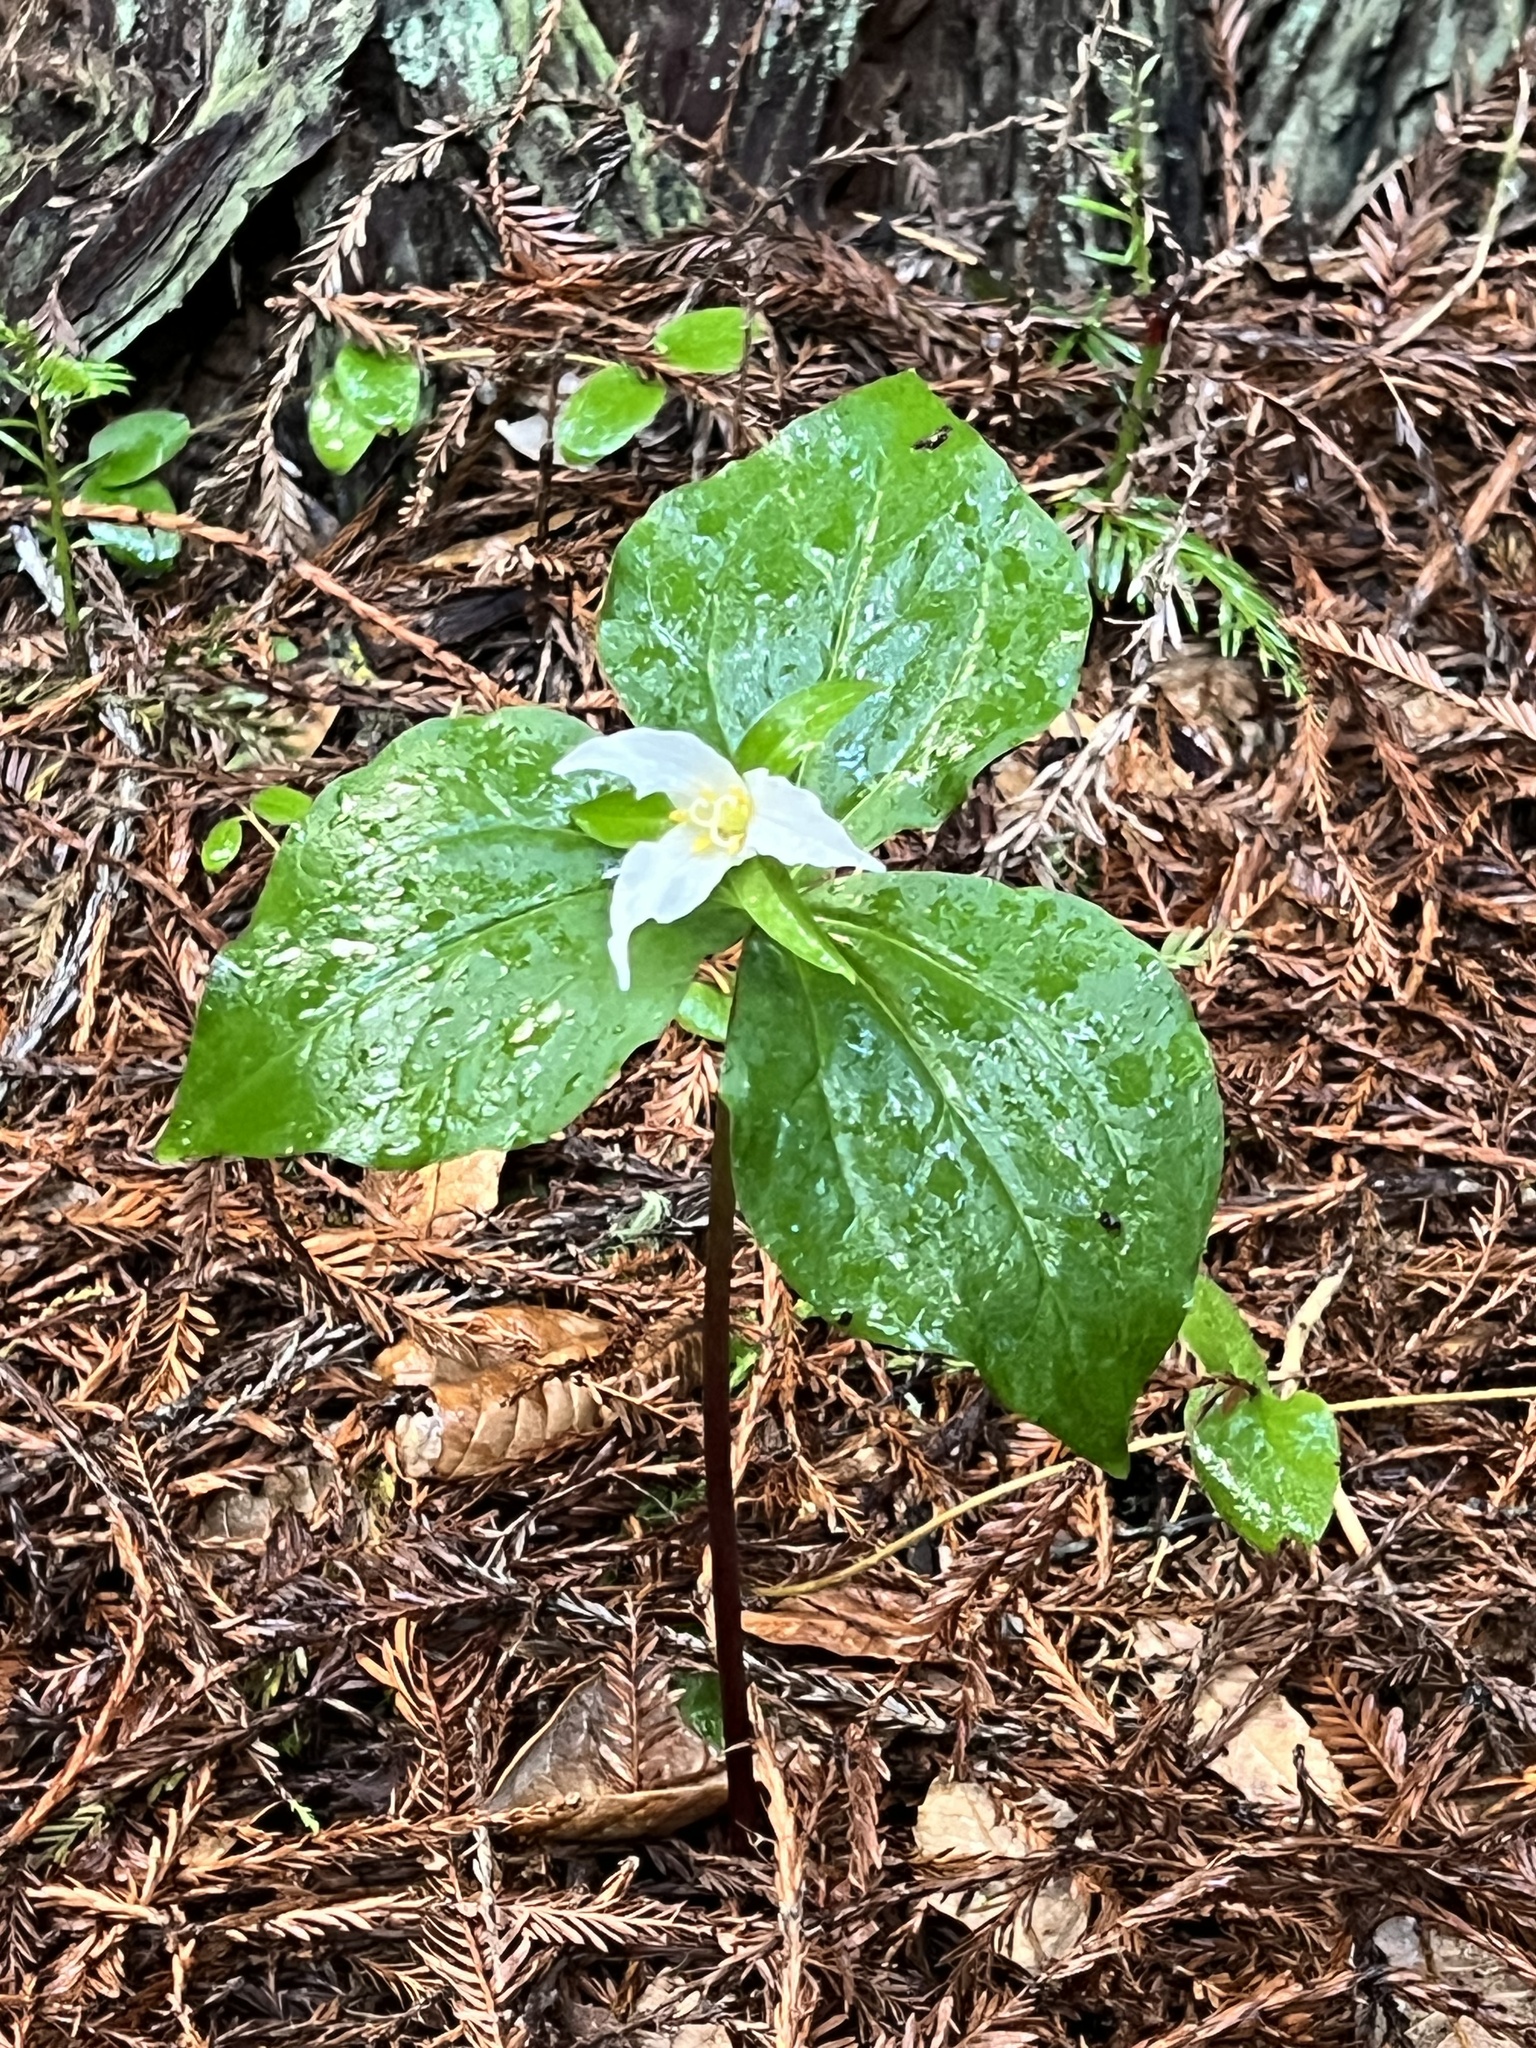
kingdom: Plantae
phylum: Tracheophyta
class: Liliopsida
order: Liliales
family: Melanthiaceae
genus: Trillium
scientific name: Trillium ovatum
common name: Pacific trillium
